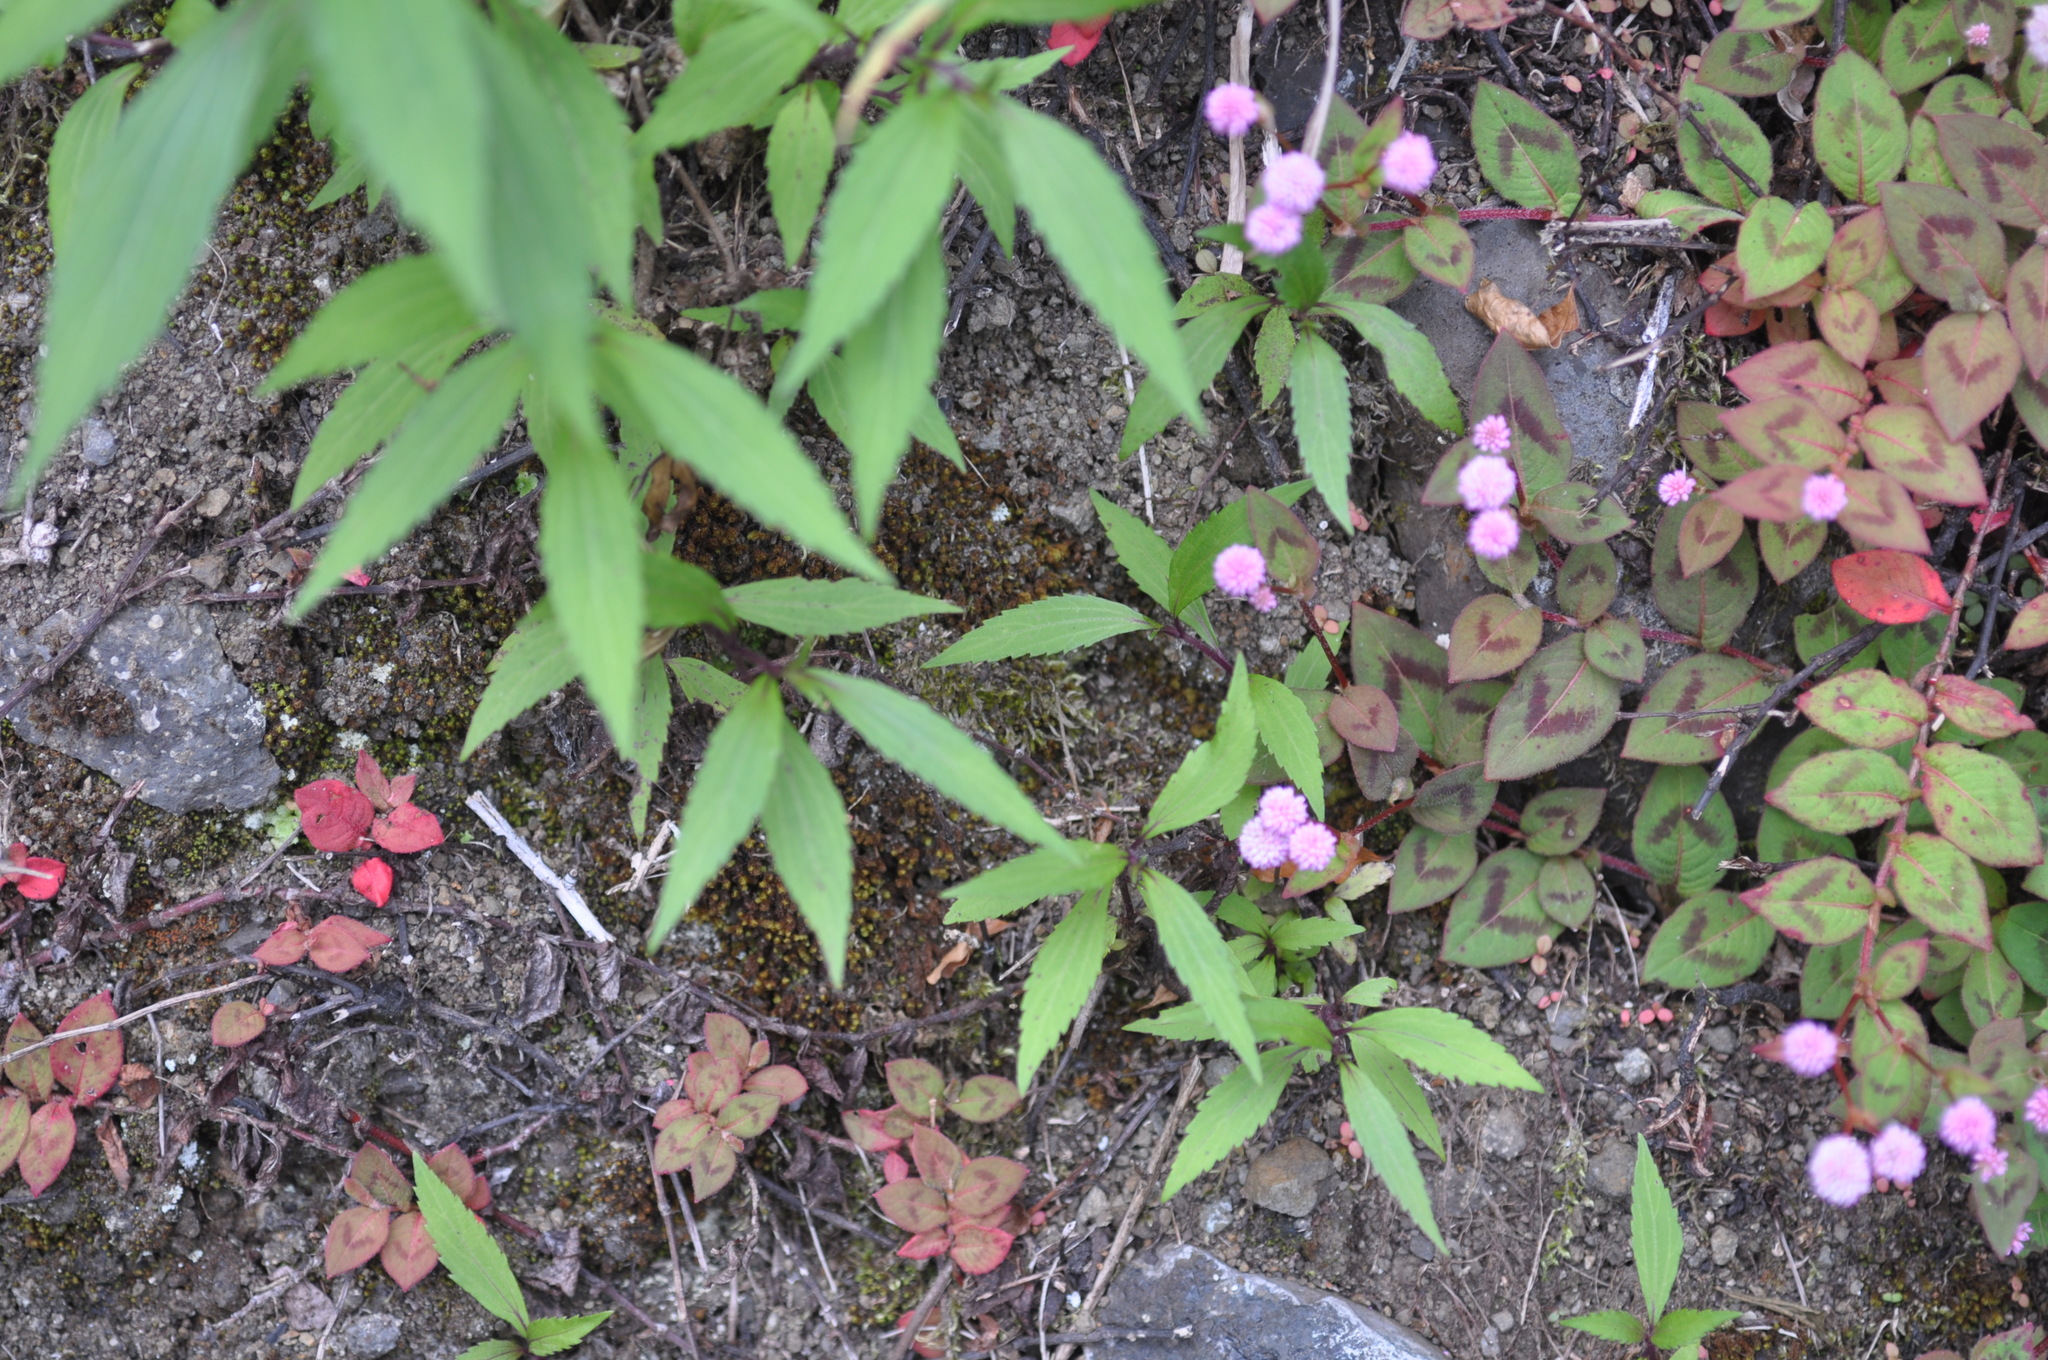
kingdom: Plantae
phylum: Tracheophyta
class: Magnoliopsida
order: Caryophyllales
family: Polygonaceae
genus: Persicaria
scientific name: Persicaria capitata
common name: Pinkhead smartweed
